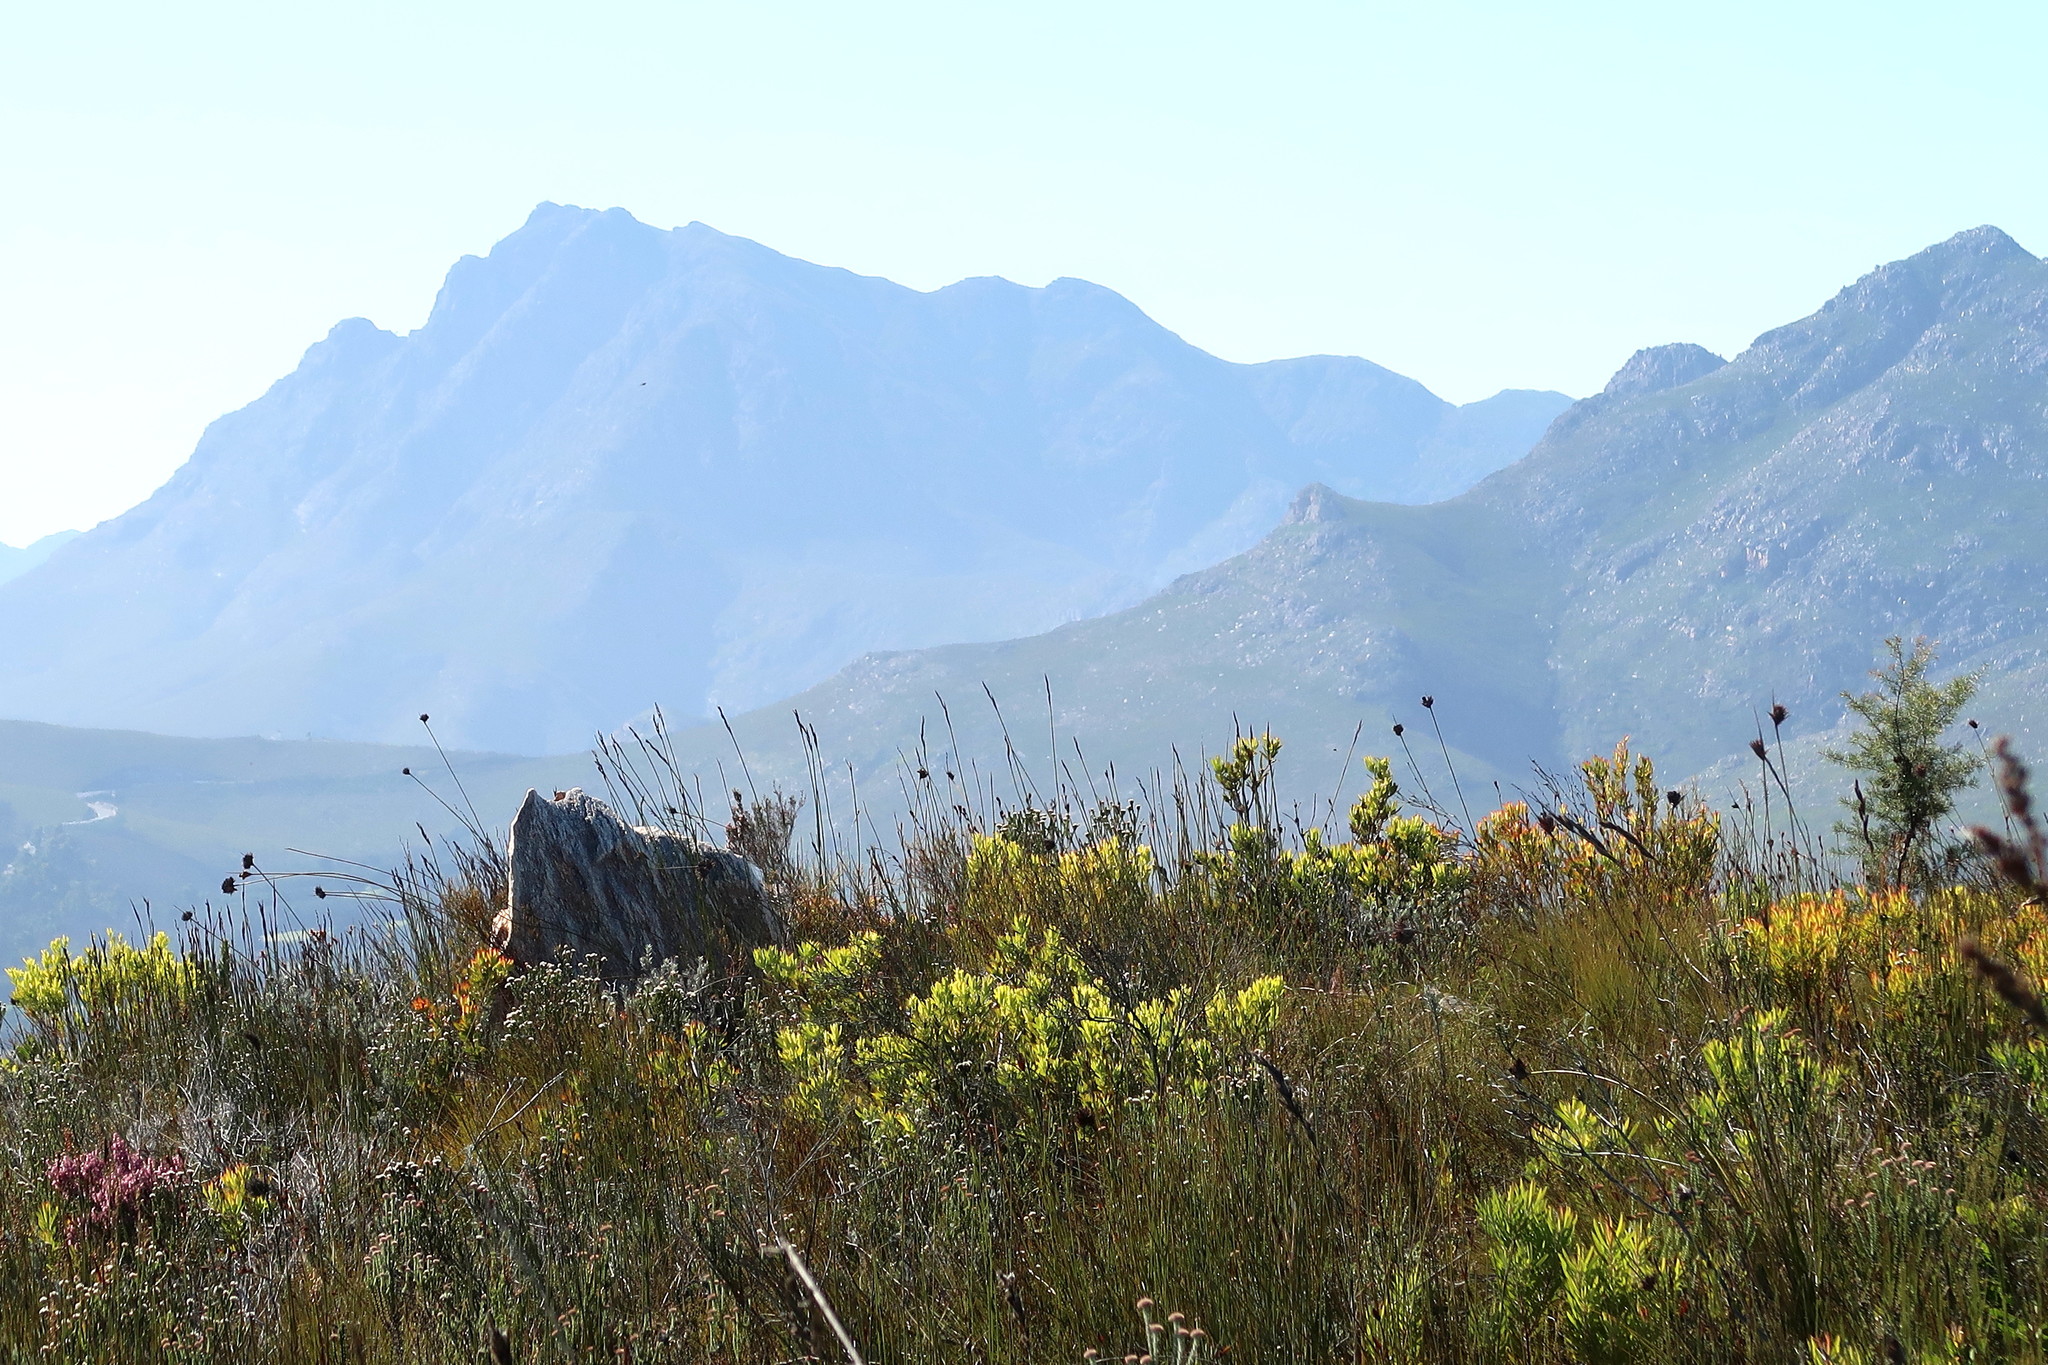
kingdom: Plantae
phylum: Tracheophyta
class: Magnoliopsida
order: Proteales
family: Proteaceae
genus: Hakea
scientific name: Hakea sericea
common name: Needle bush
